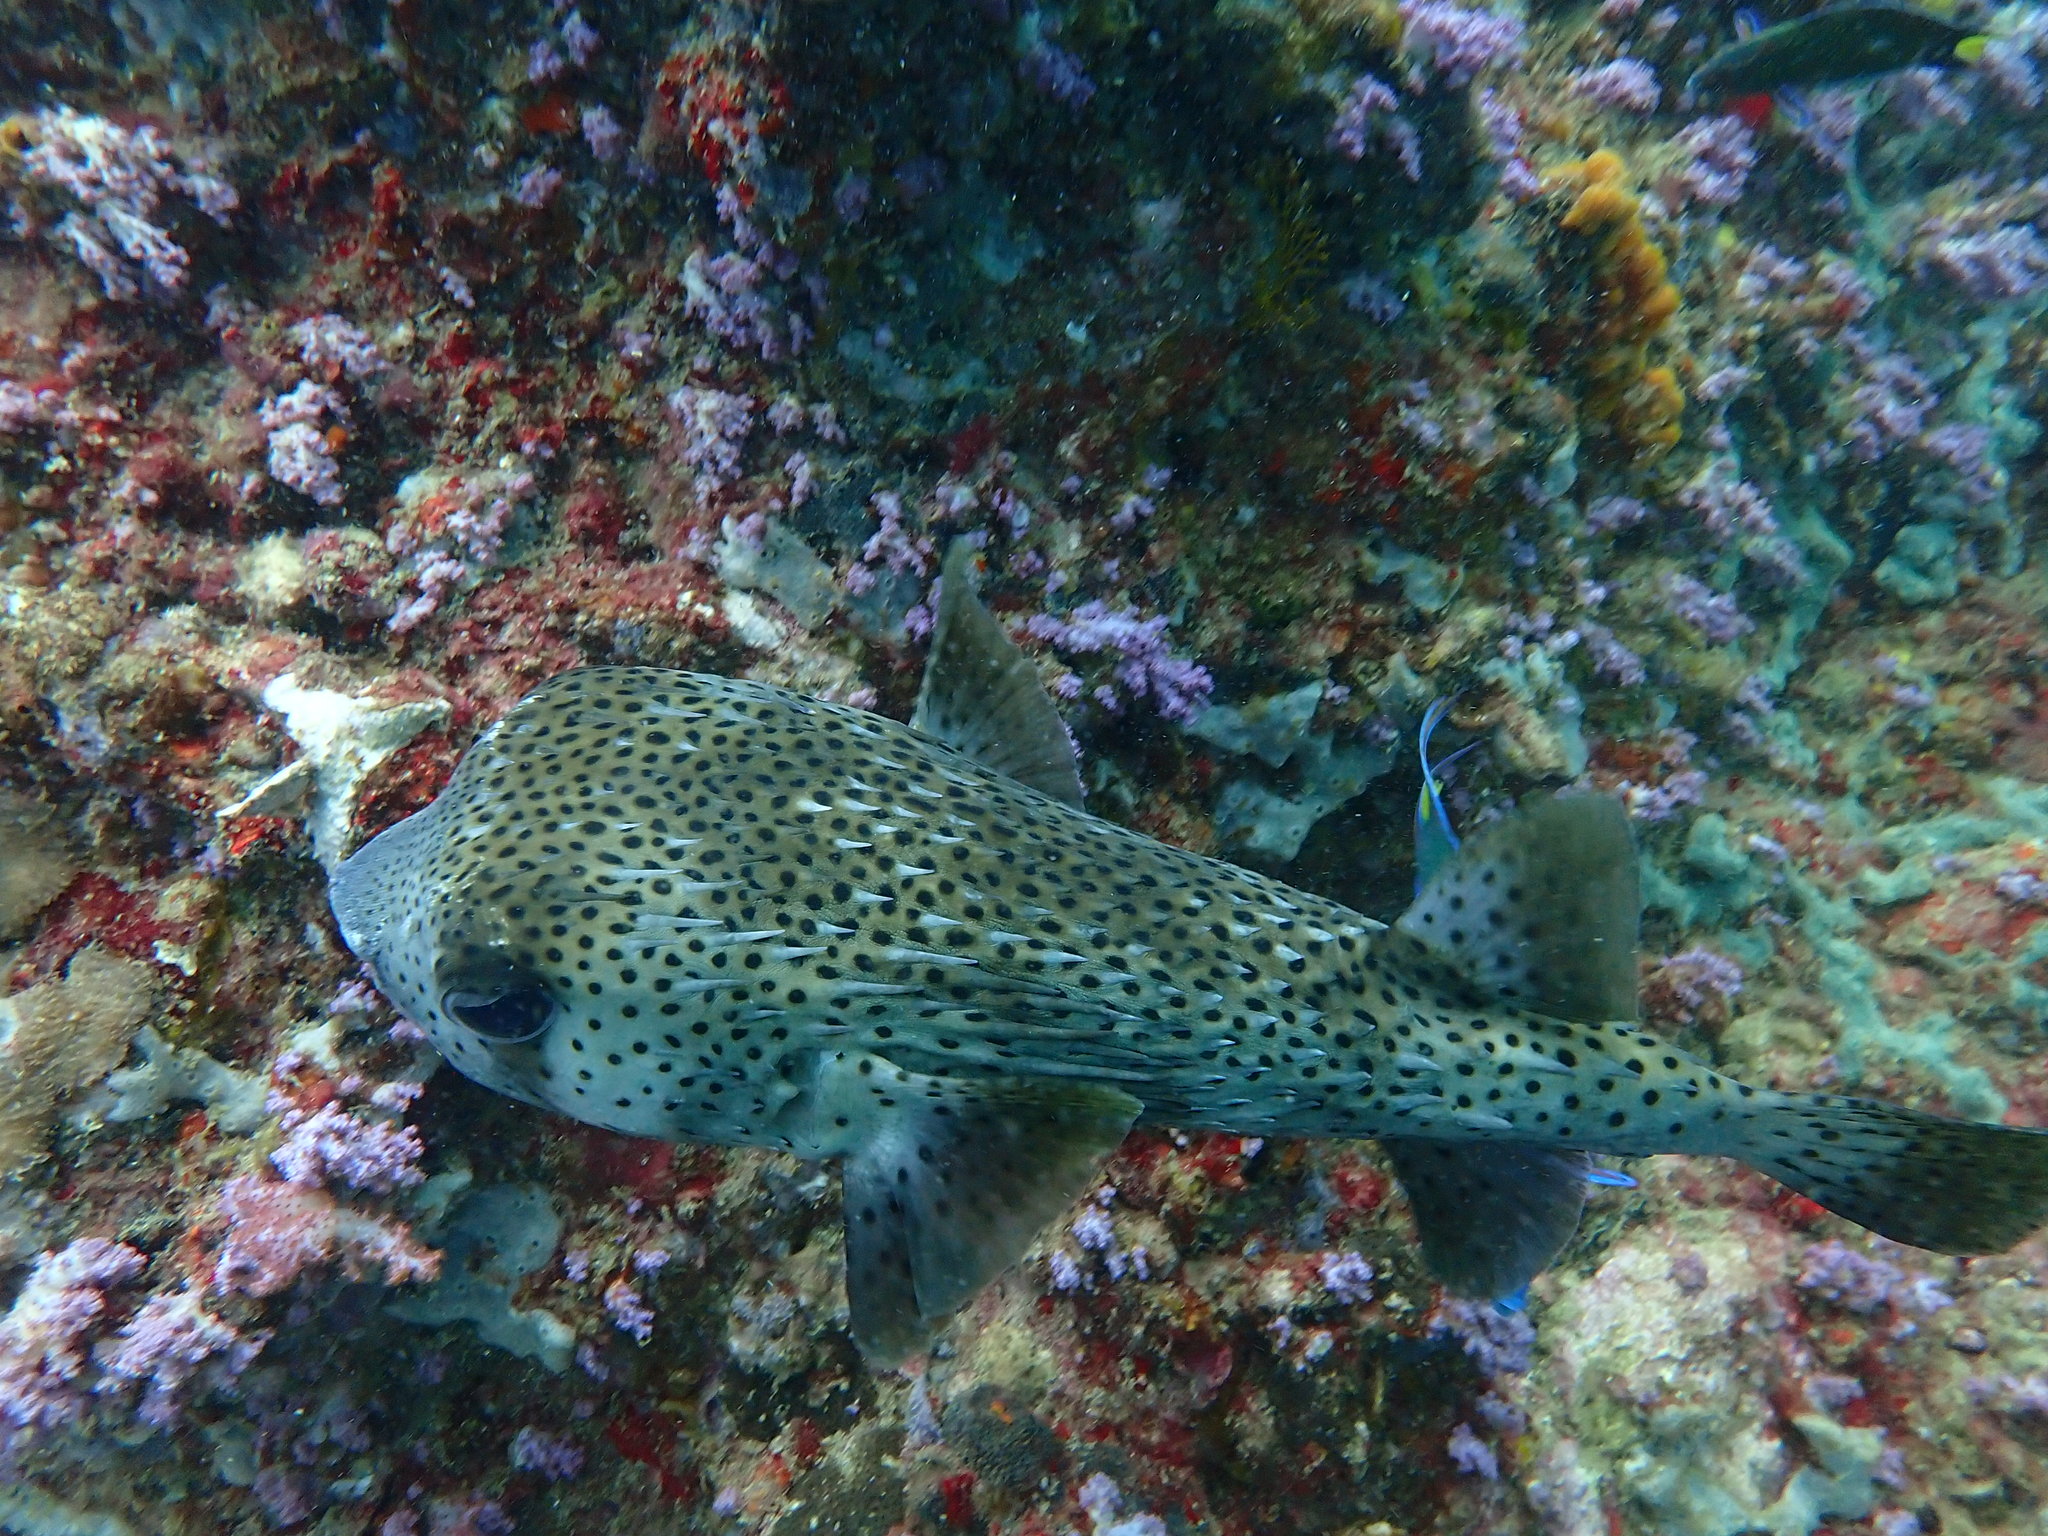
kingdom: Animalia
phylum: Chordata
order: Tetraodontiformes
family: Diodontidae
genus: Diodon
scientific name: Diodon hystrix
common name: Giant porcupinefish
